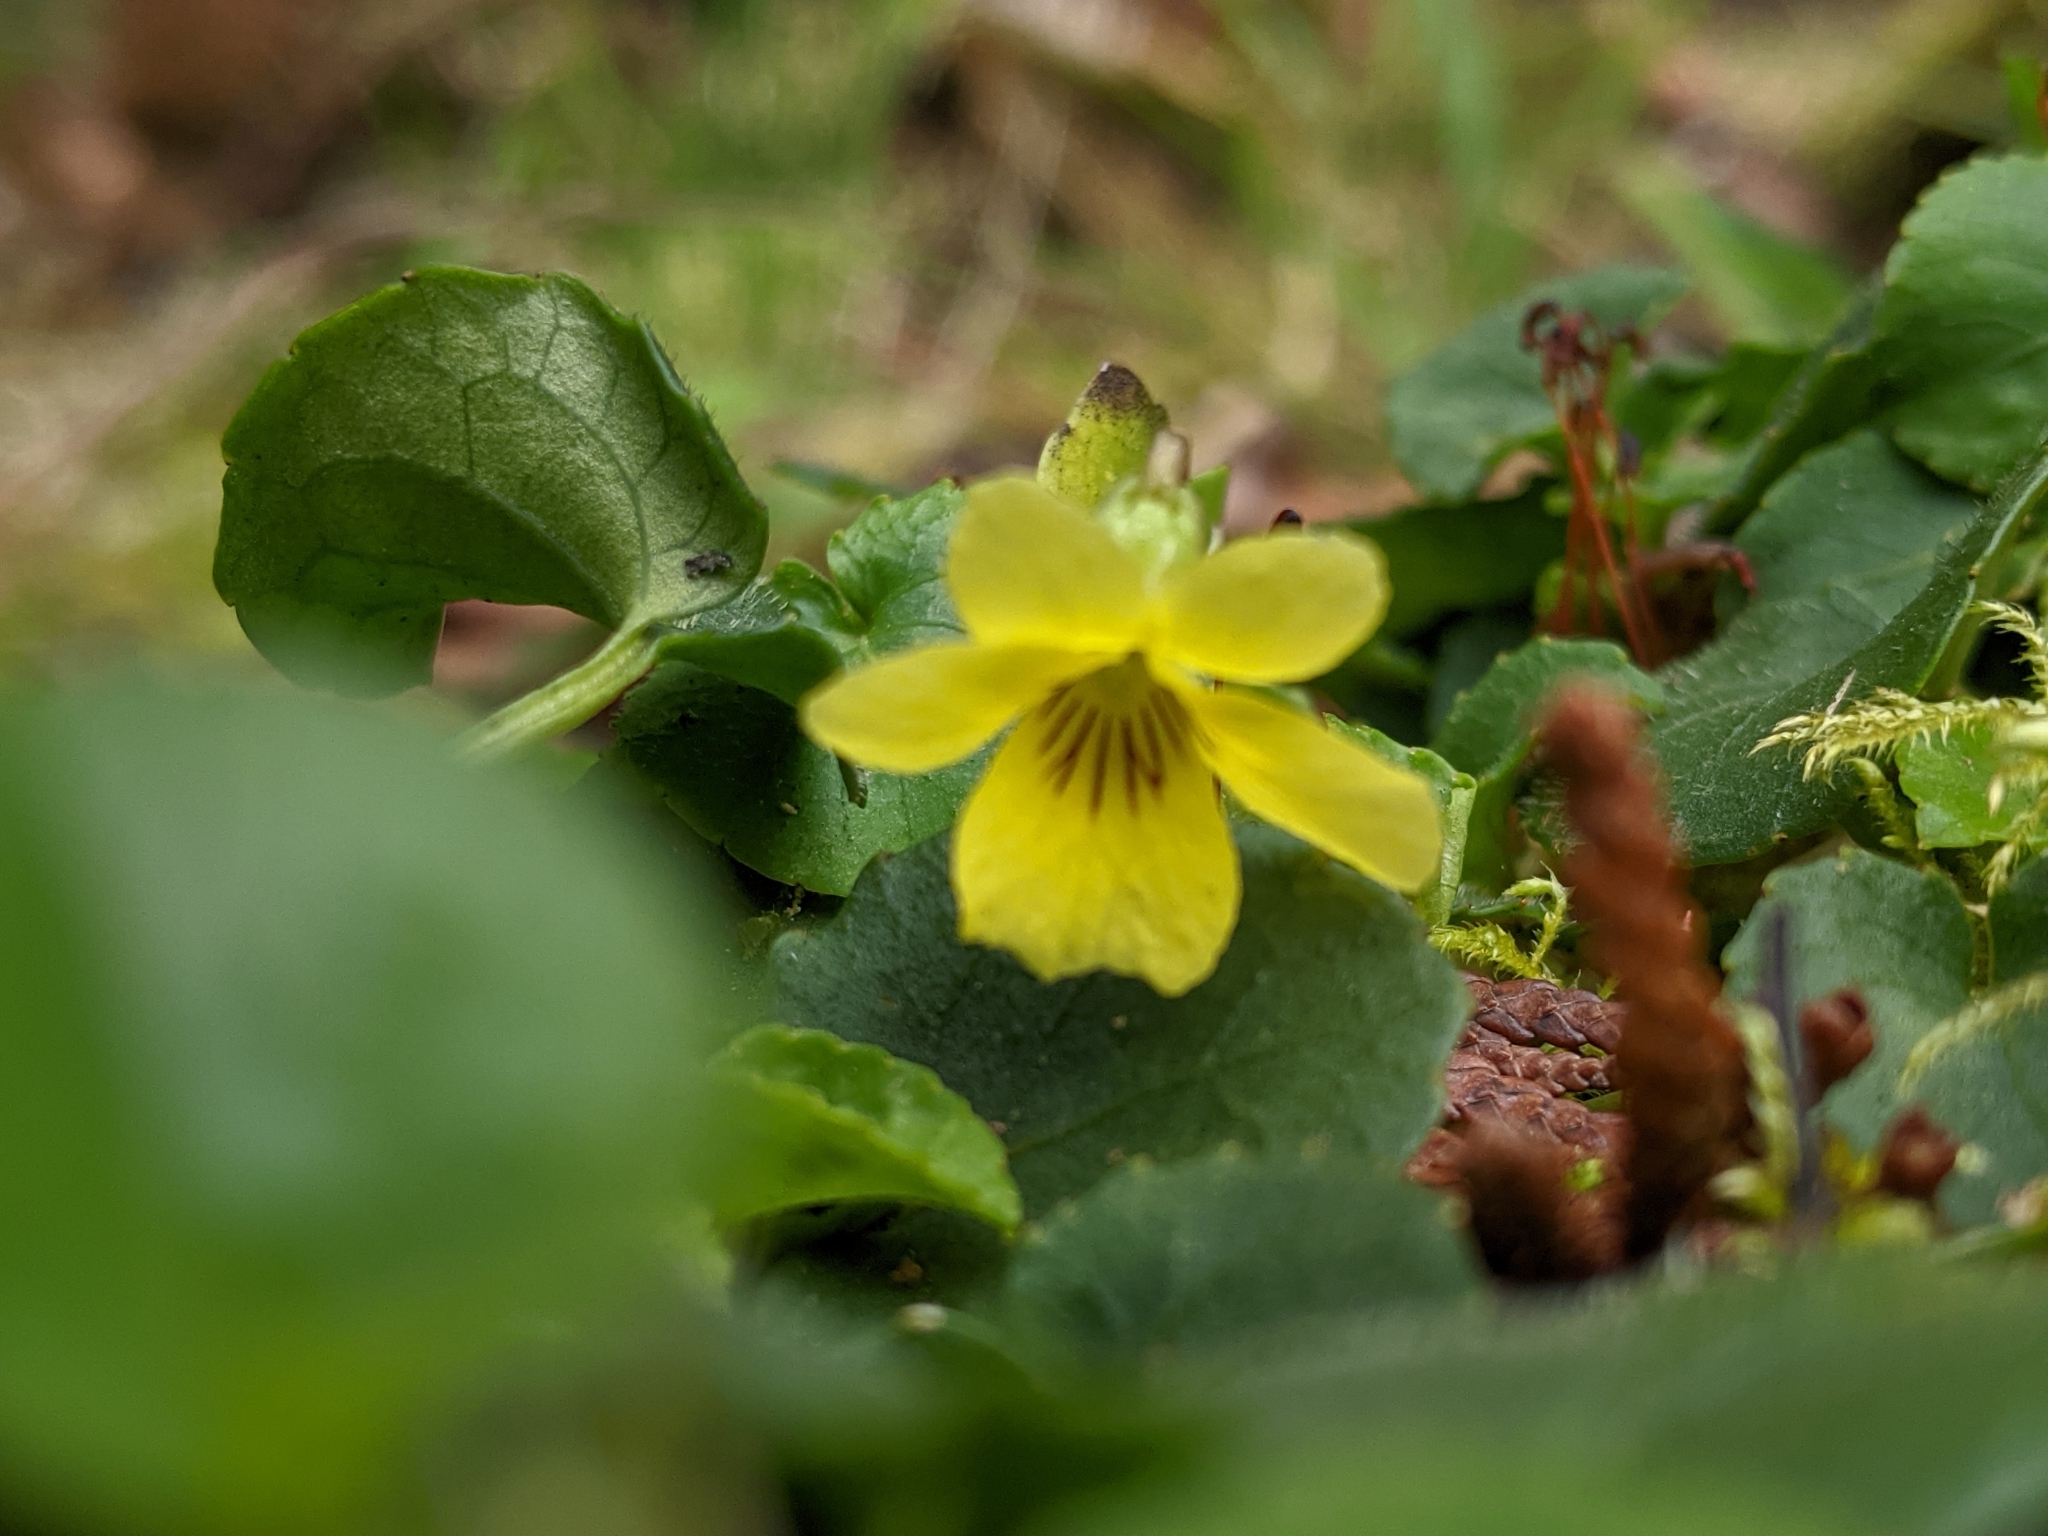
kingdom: Plantae
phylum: Tracheophyta
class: Magnoliopsida
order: Malpighiales
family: Violaceae
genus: Viola
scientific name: Viola sempervirens
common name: Evergreen violet
